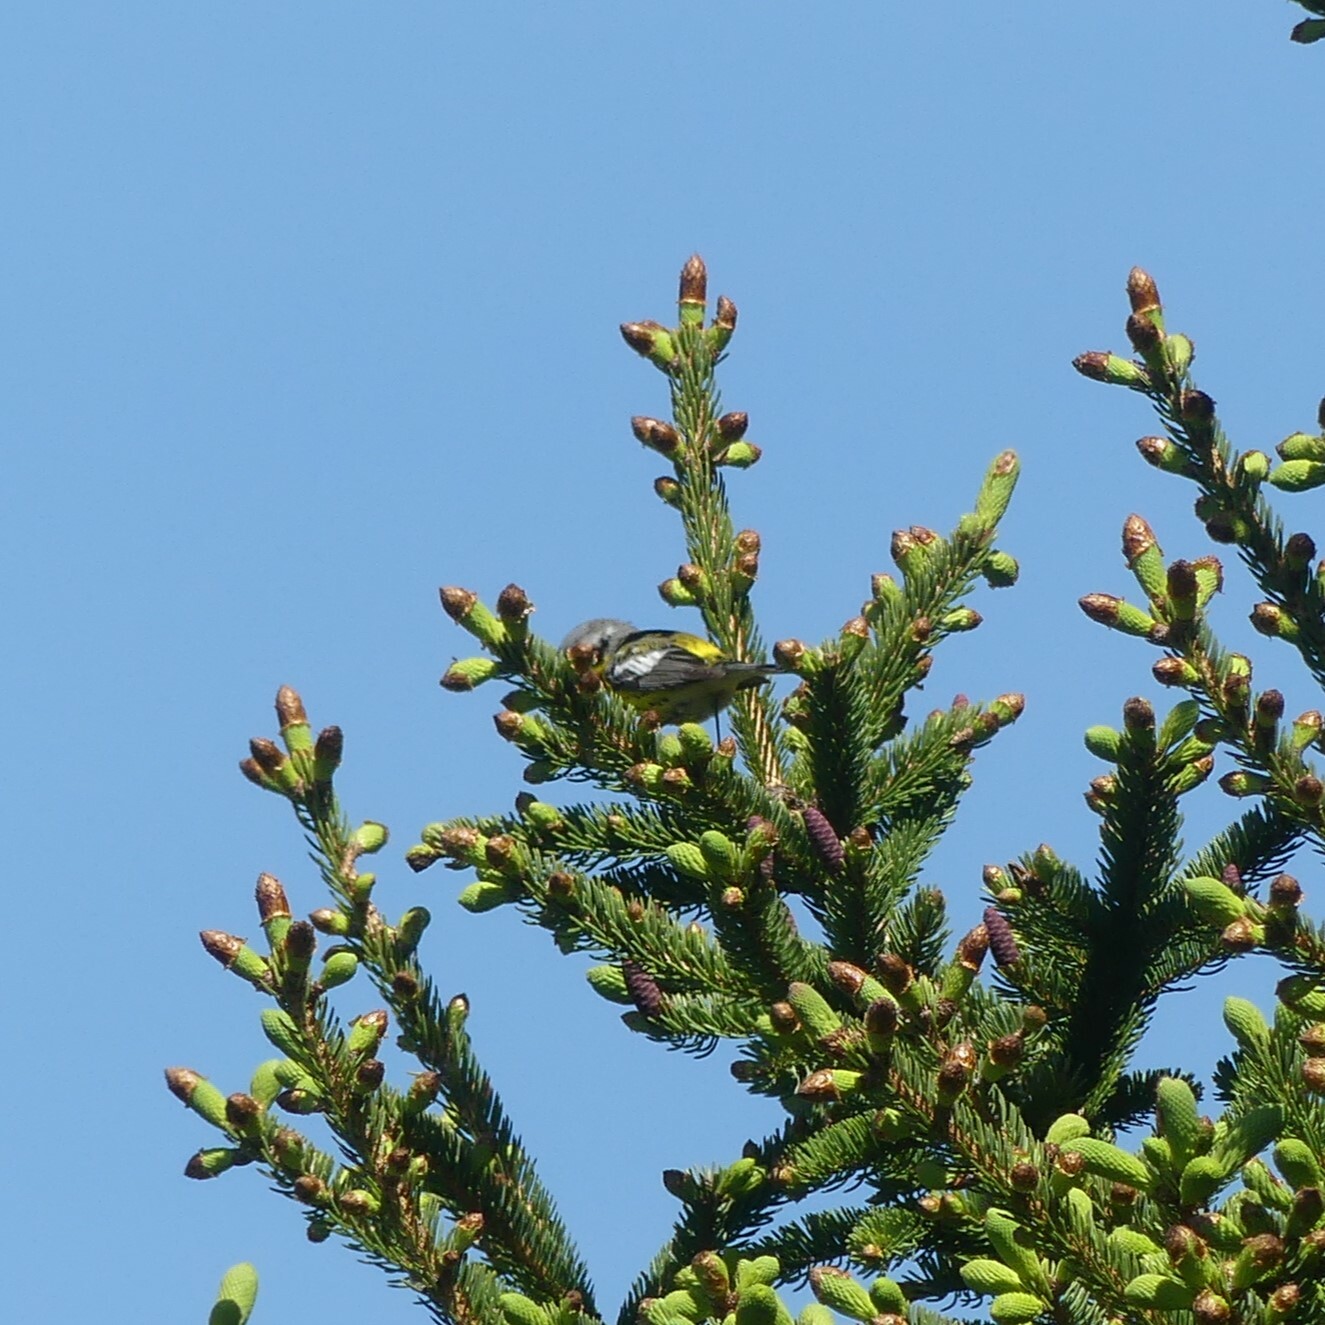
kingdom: Animalia
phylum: Chordata
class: Aves
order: Passeriformes
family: Parulidae
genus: Setophaga
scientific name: Setophaga magnolia
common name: Magnolia warbler
